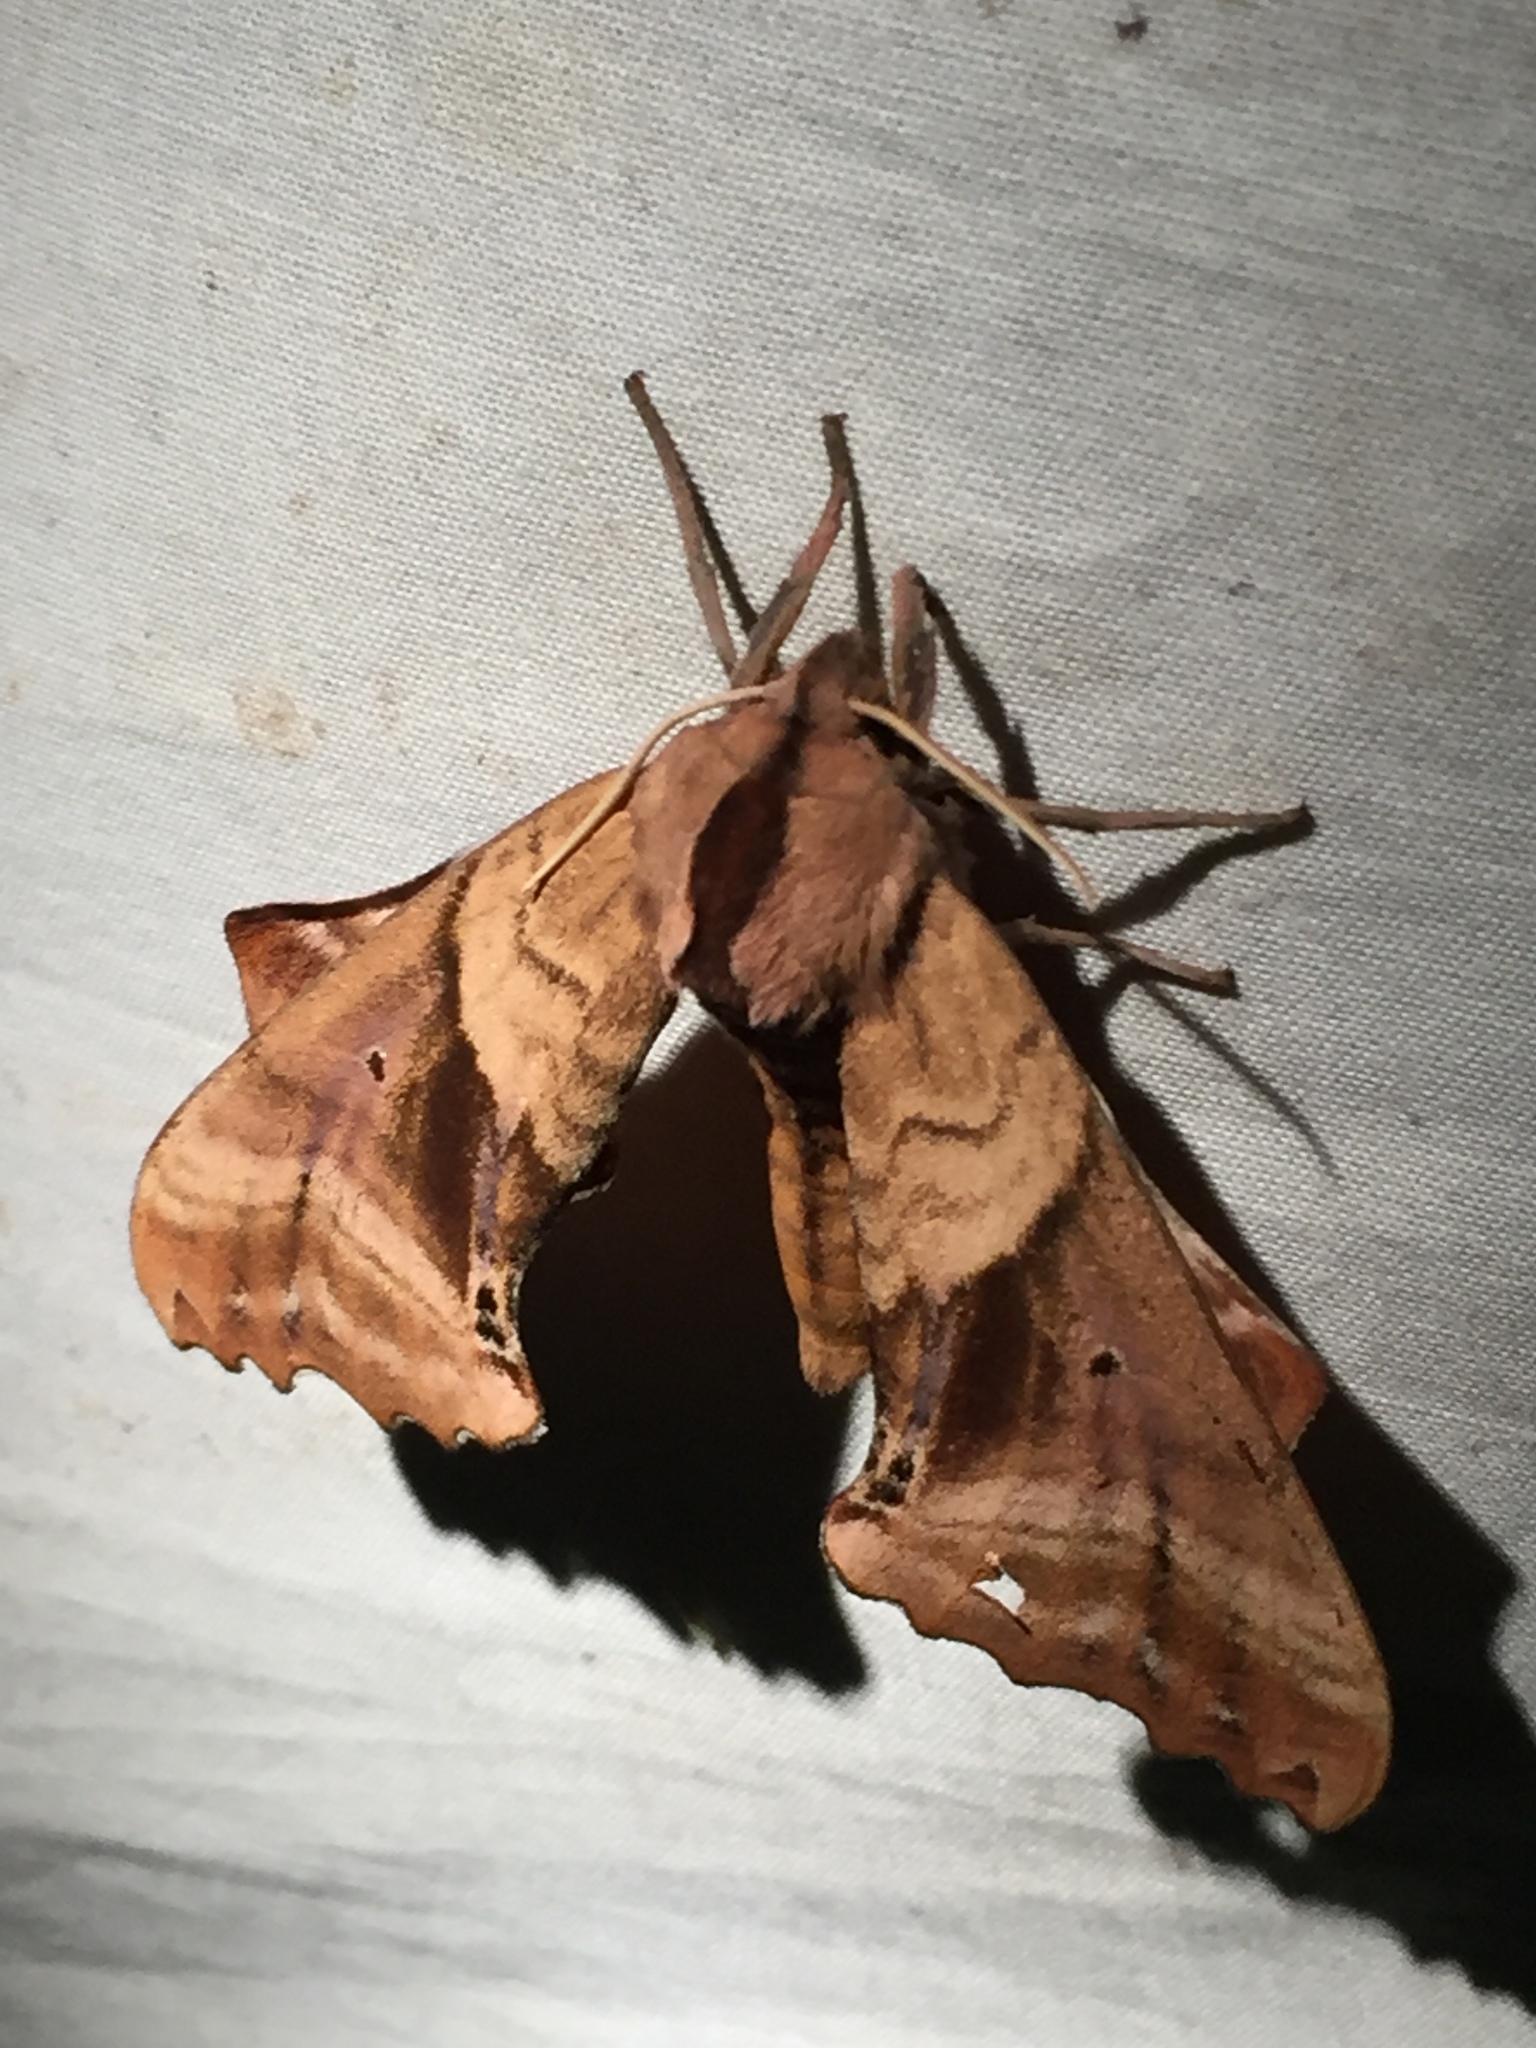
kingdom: Animalia
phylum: Arthropoda
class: Insecta
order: Lepidoptera
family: Sphingidae
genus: Paonias
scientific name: Paonias excaecata
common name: Blind-eyed sphinx
